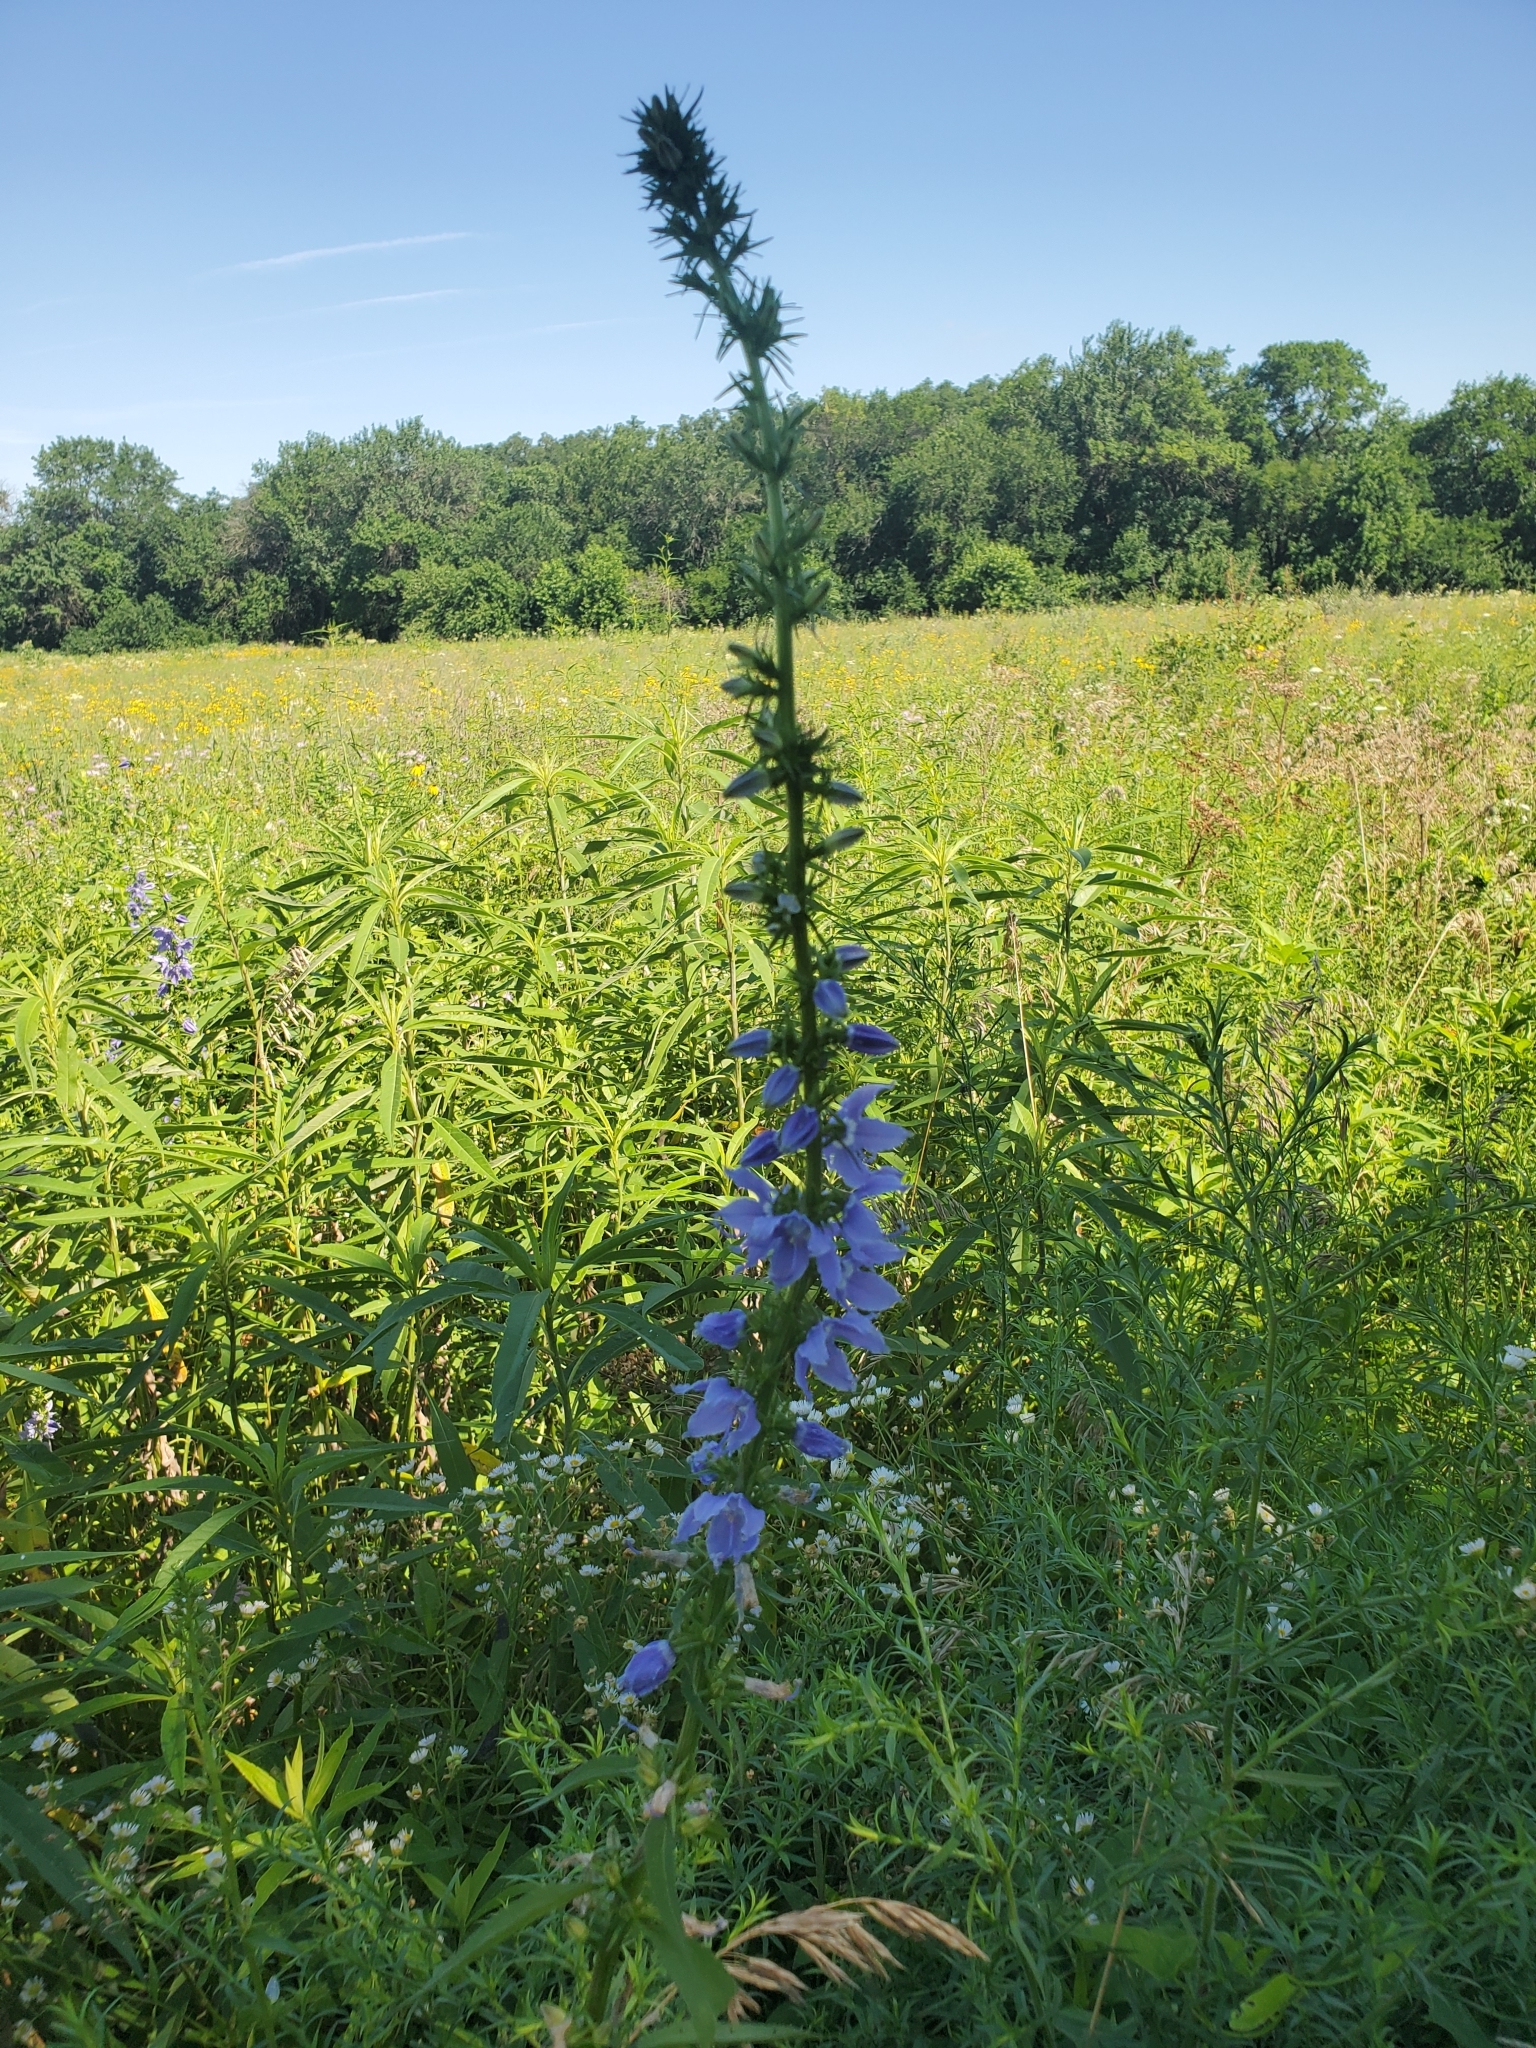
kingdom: Plantae
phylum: Tracheophyta
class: Magnoliopsida
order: Asterales
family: Campanulaceae
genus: Campanulastrum
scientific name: Campanulastrum americanum
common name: American bellflower
